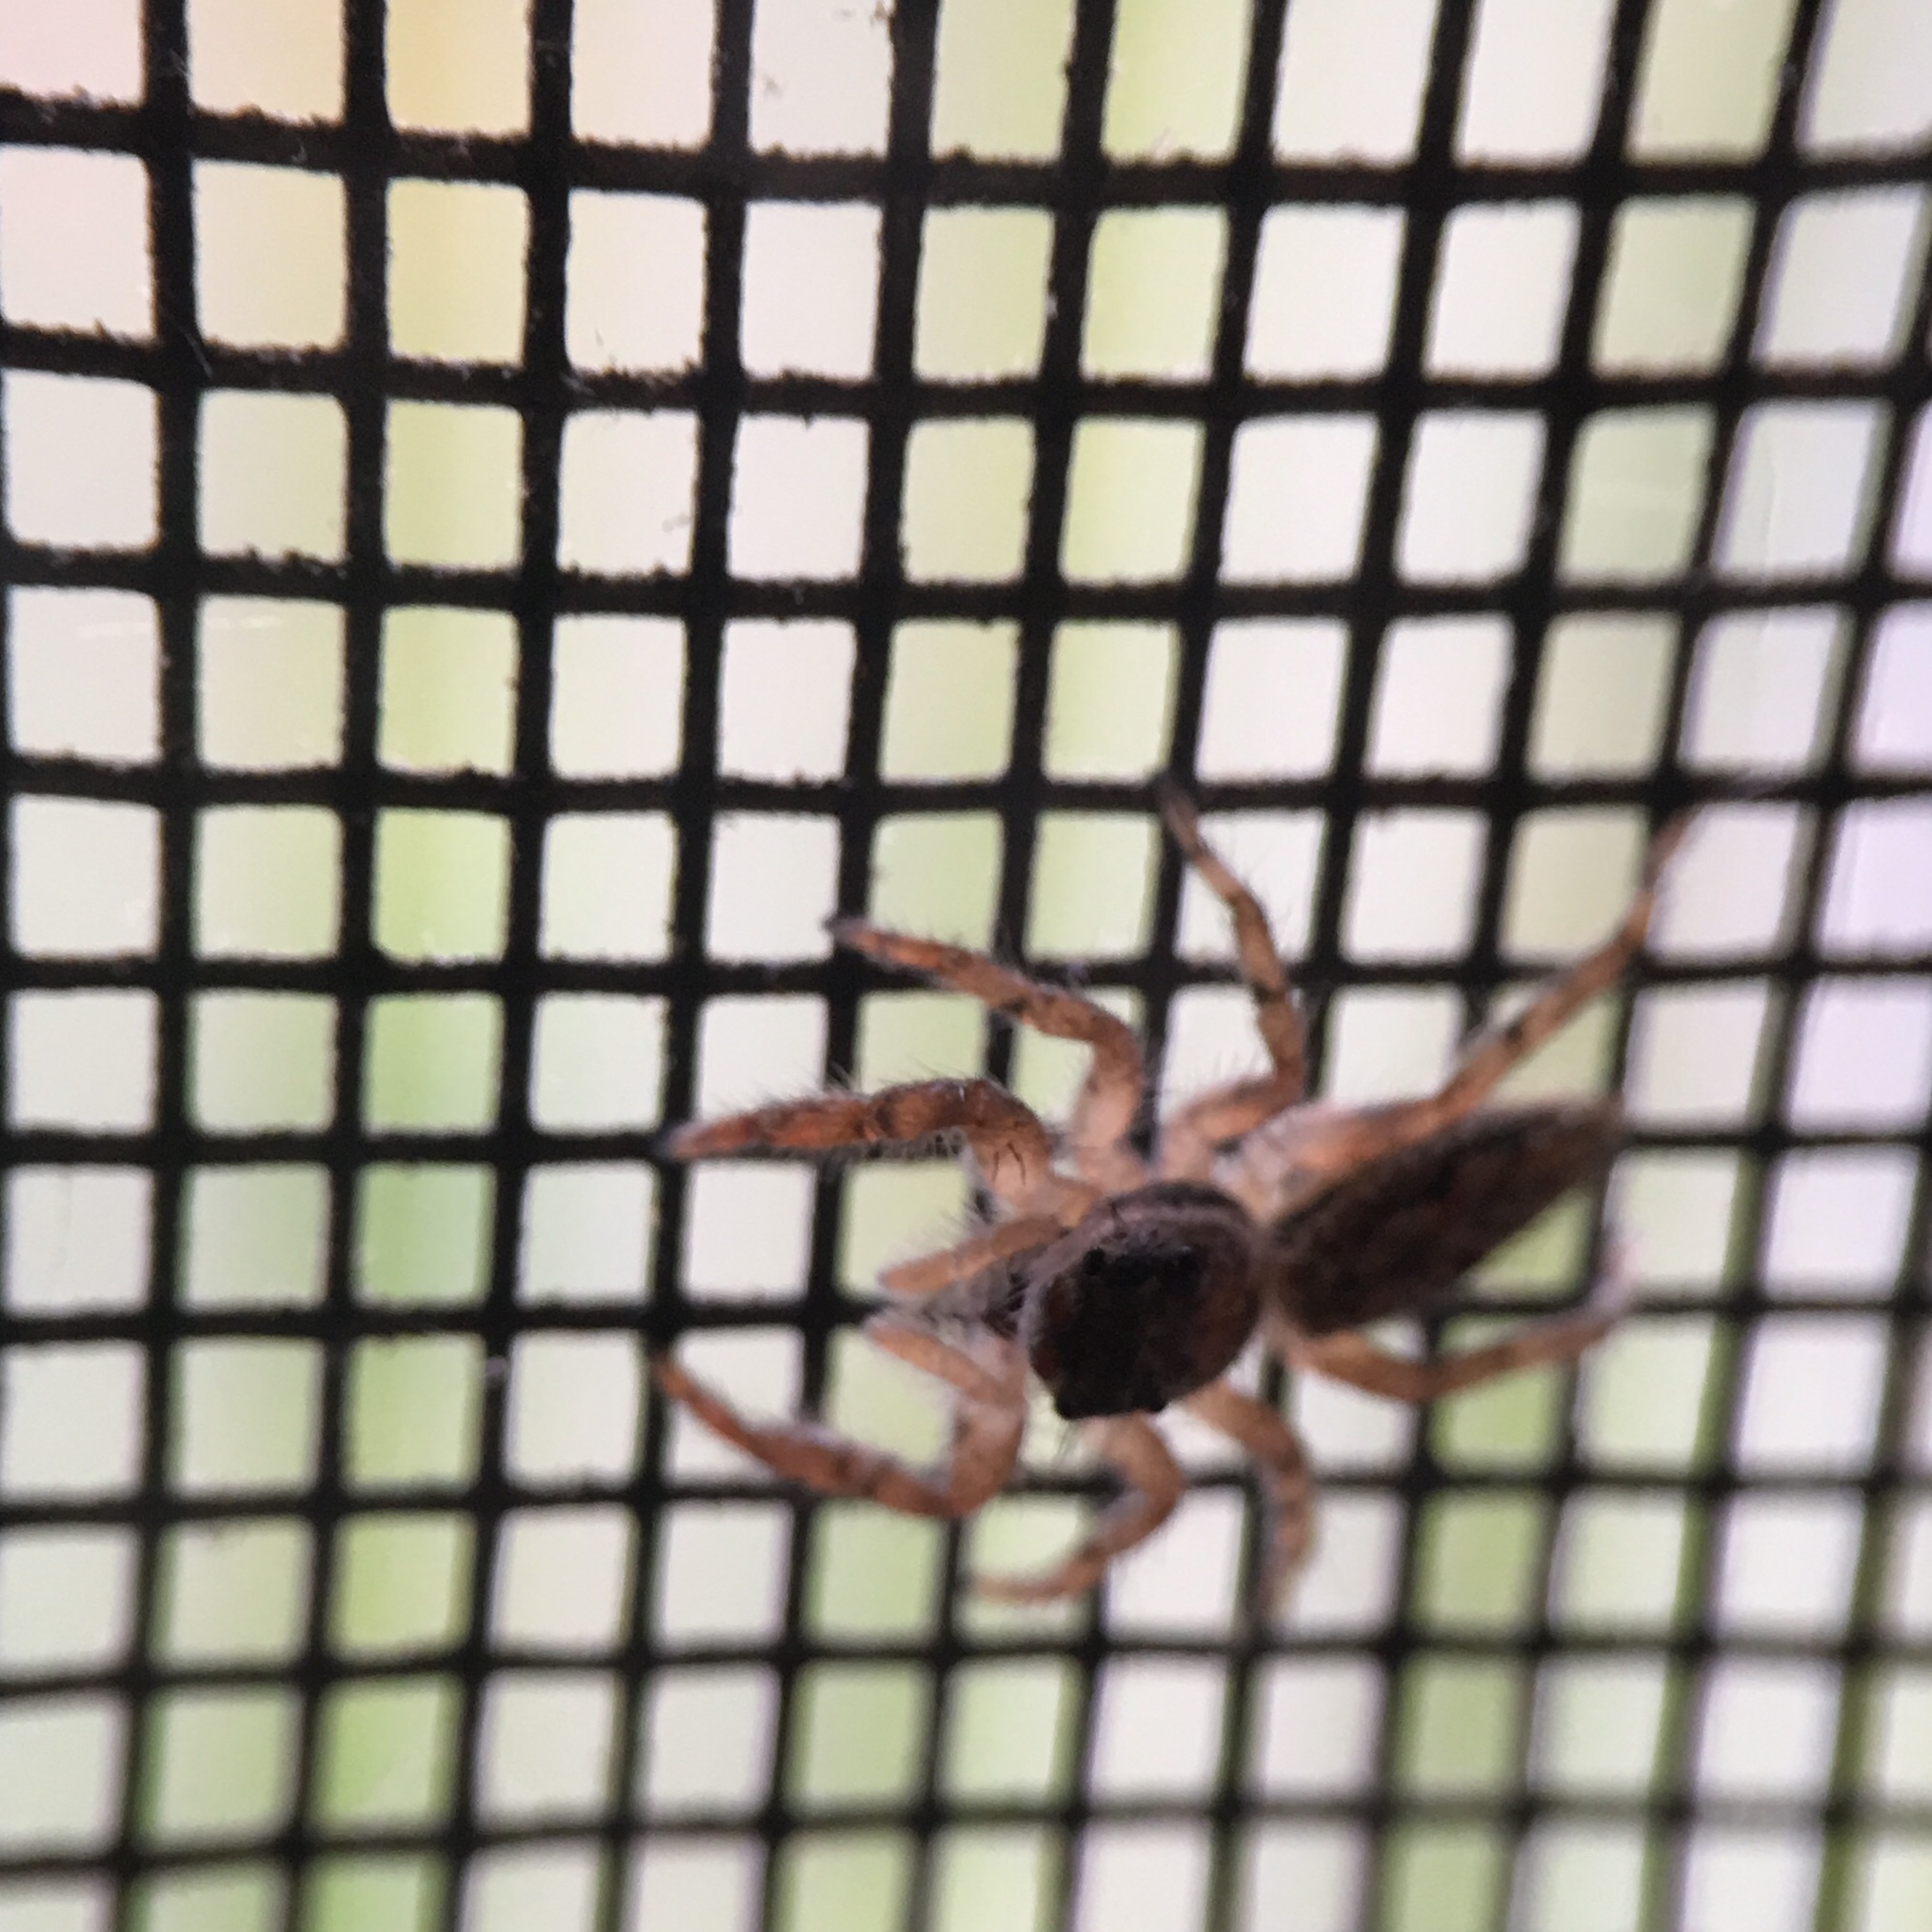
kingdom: Animalia
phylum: Arthropoda
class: Arachnida
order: Araneae
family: Salticidae
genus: Platycryptus
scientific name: Platycryptus undatus
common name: Tan jumping spider
